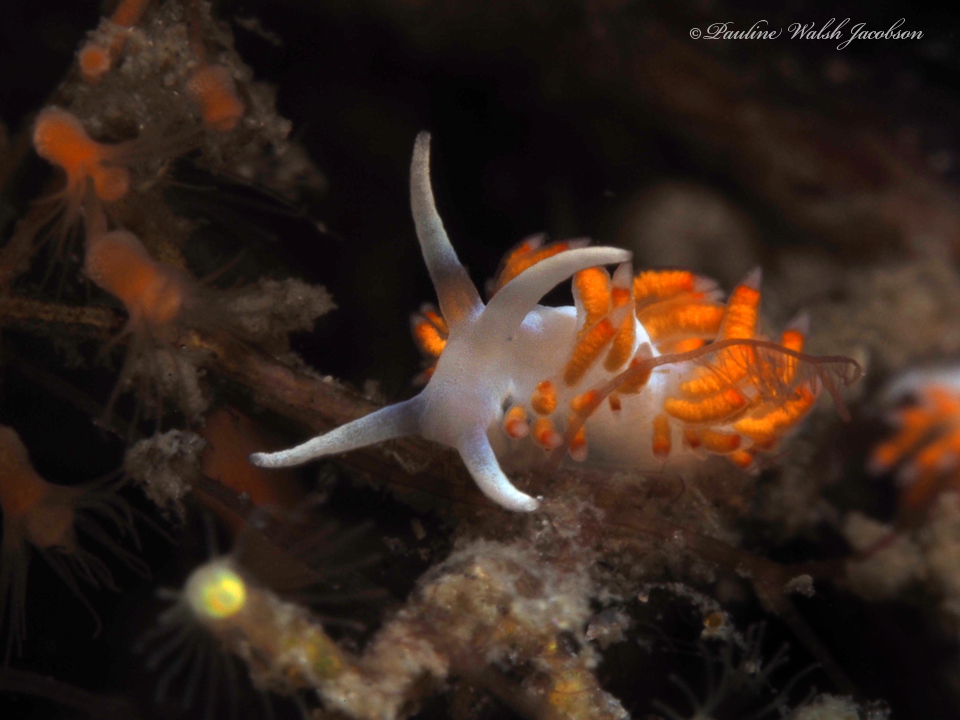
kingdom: Animalia
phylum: Mollusca
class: Gastropoda
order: Nudibranchia
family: Flabellinidae
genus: Flabellina
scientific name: Flabellina dushia
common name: Dushia flabellina
